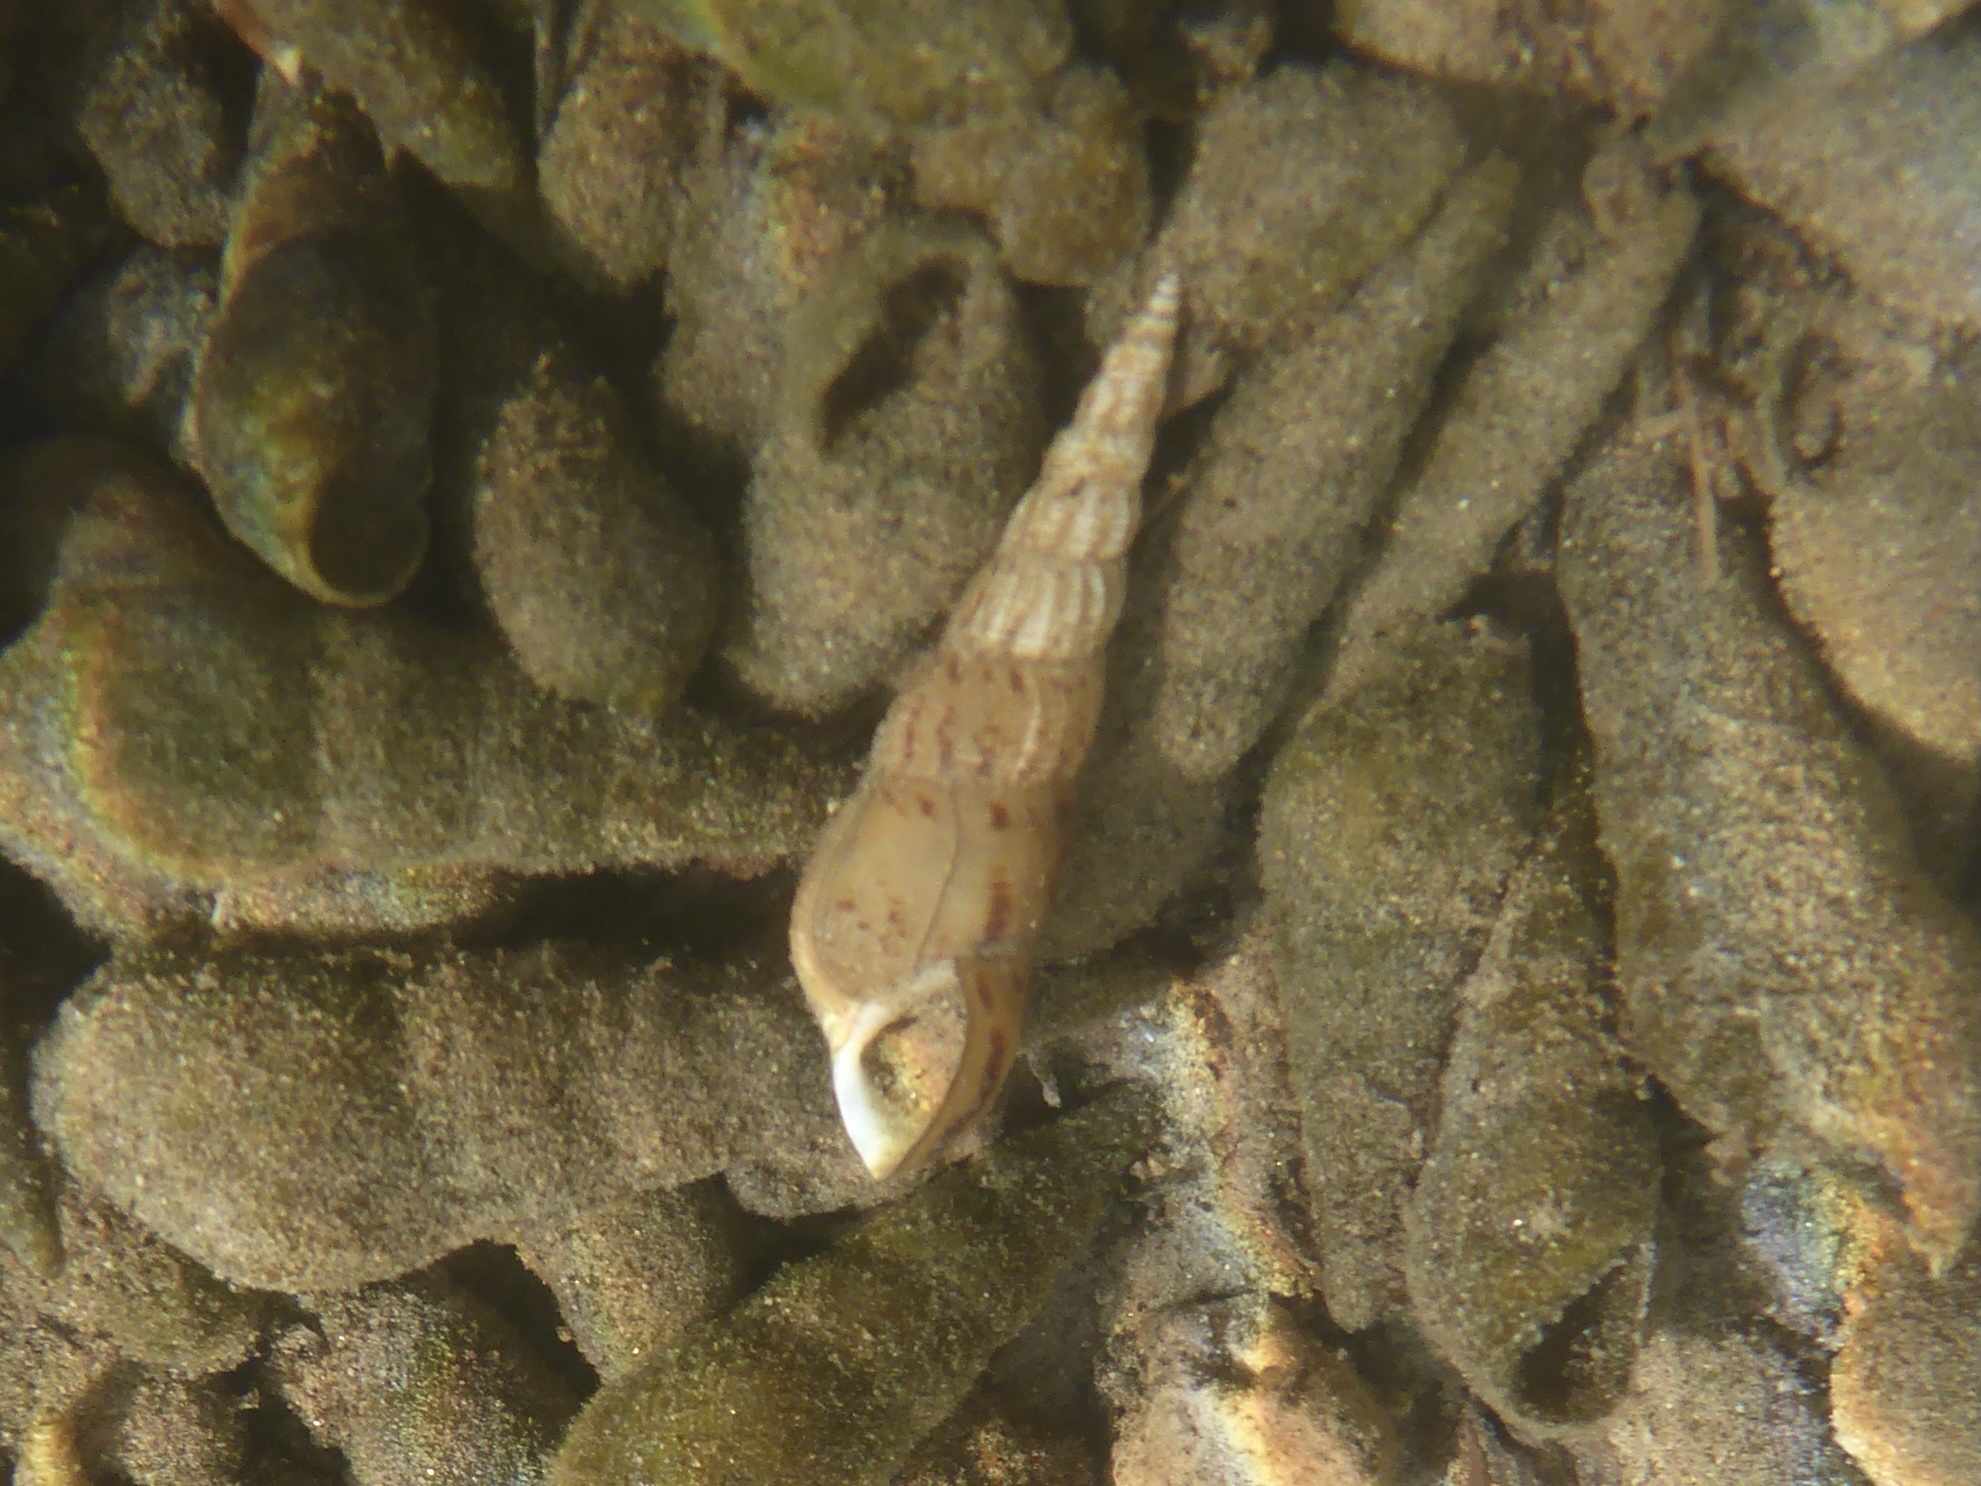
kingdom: Animalia
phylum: Mollusca
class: Gastropoda
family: Thiaridae
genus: Melanoides
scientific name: Melanoides tuberculata
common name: Red-rim melania
